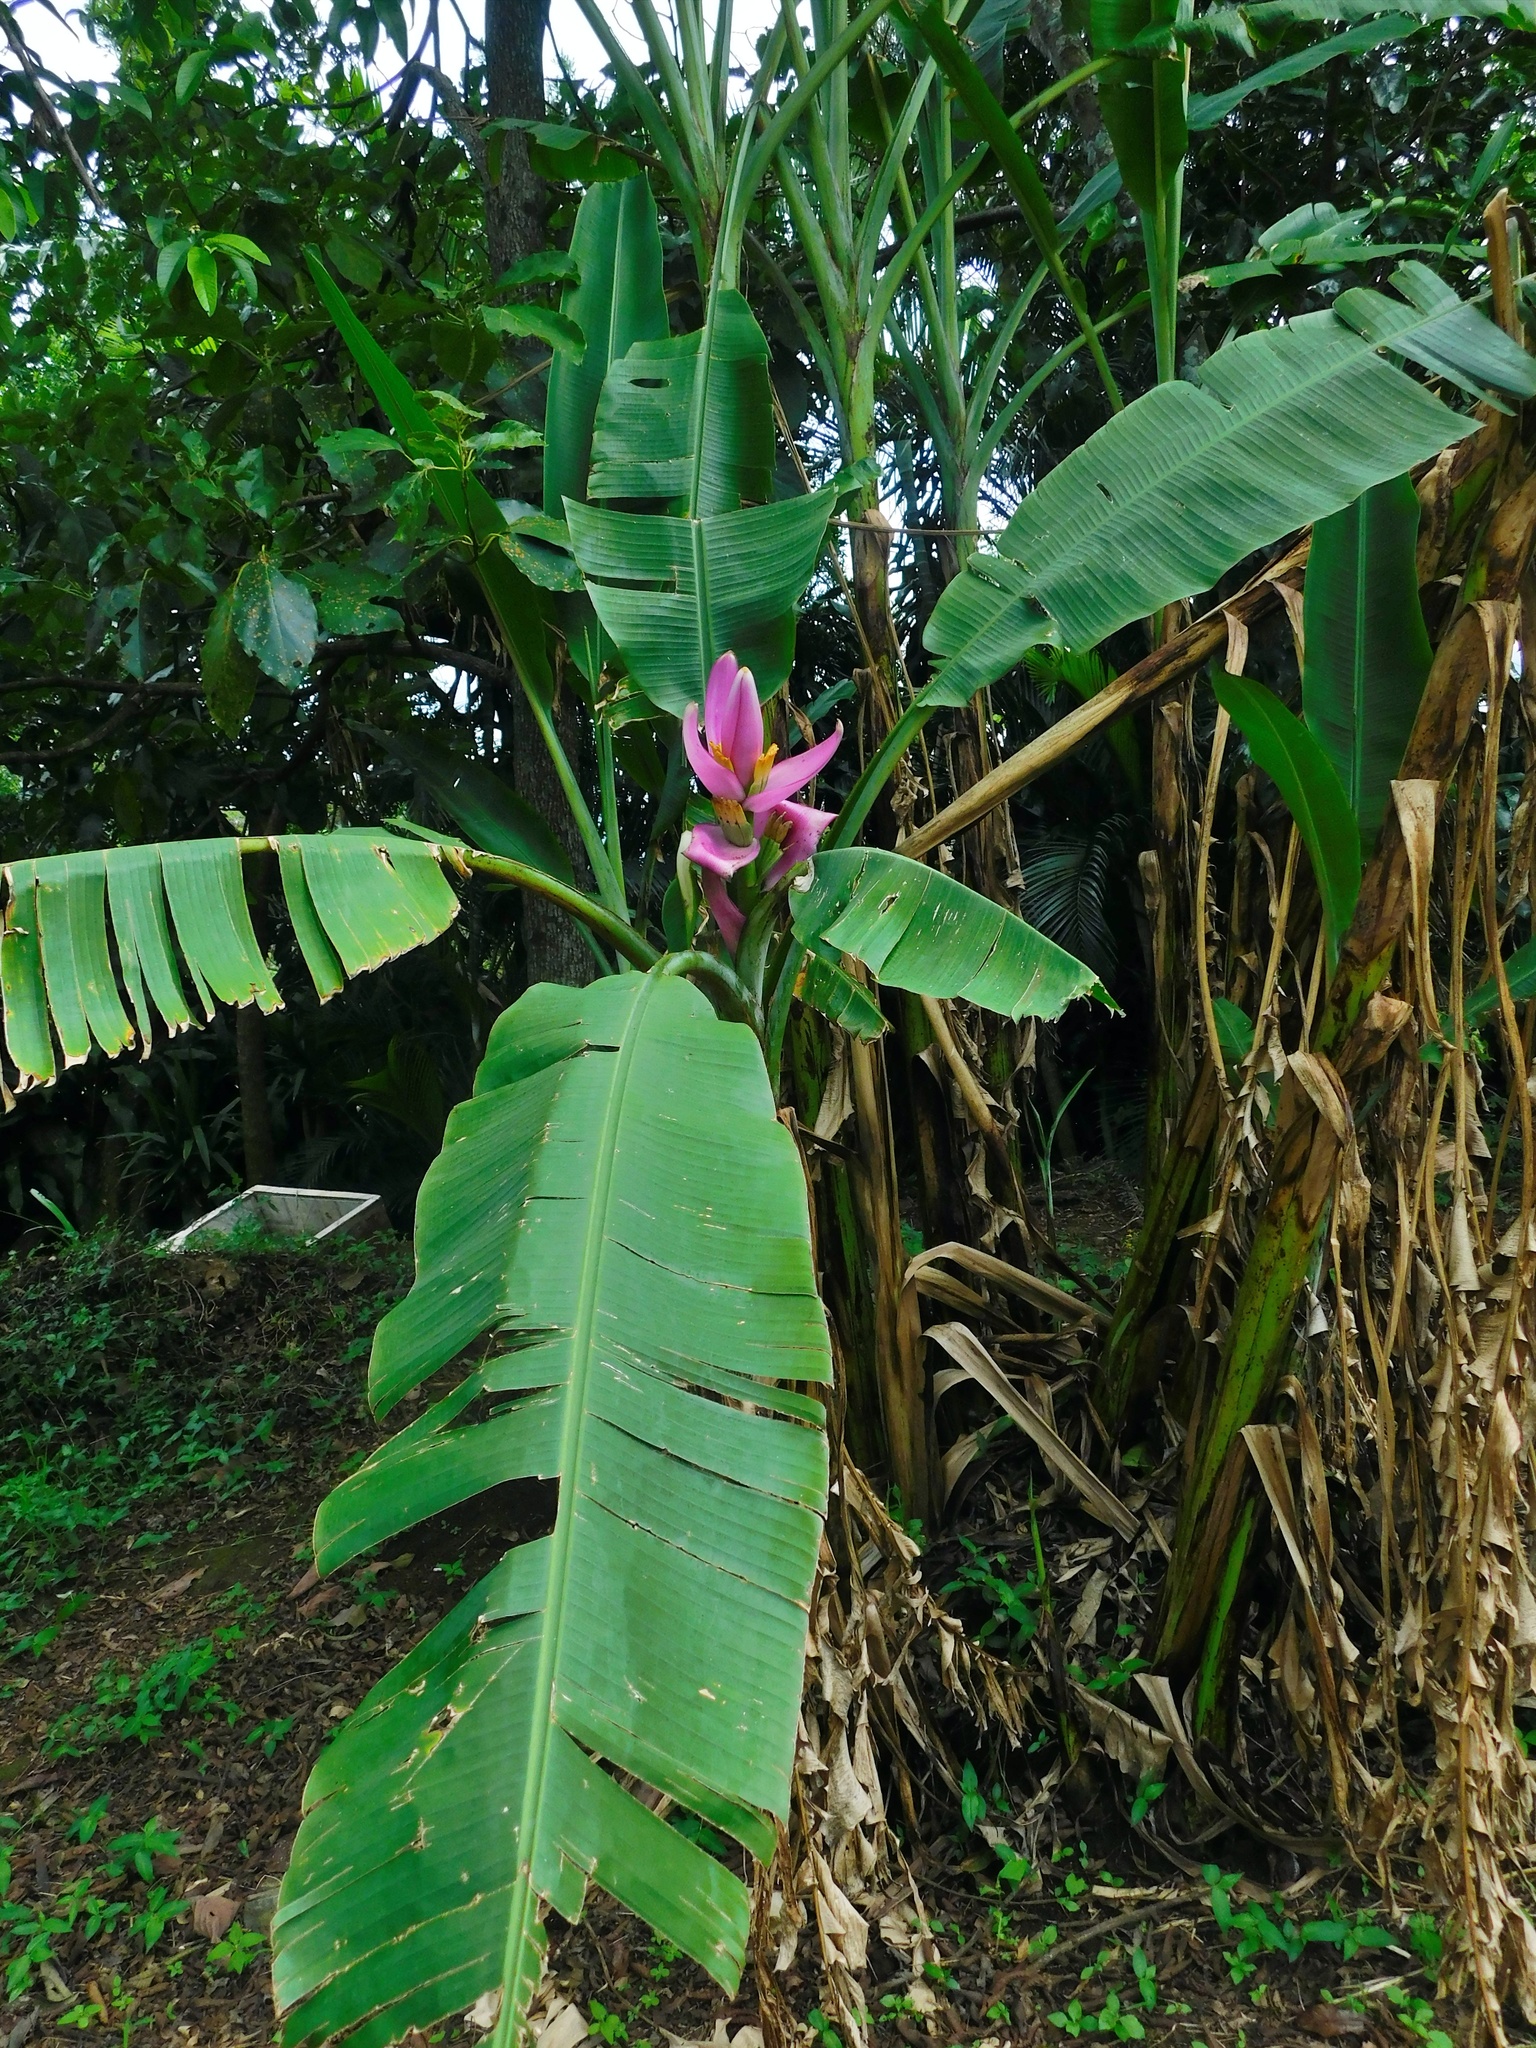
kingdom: Plantae
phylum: Tracheophyta
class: Liliopsida
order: Zingiberales
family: Musaceae
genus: Musa
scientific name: Musa ornata
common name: Flowering banana
